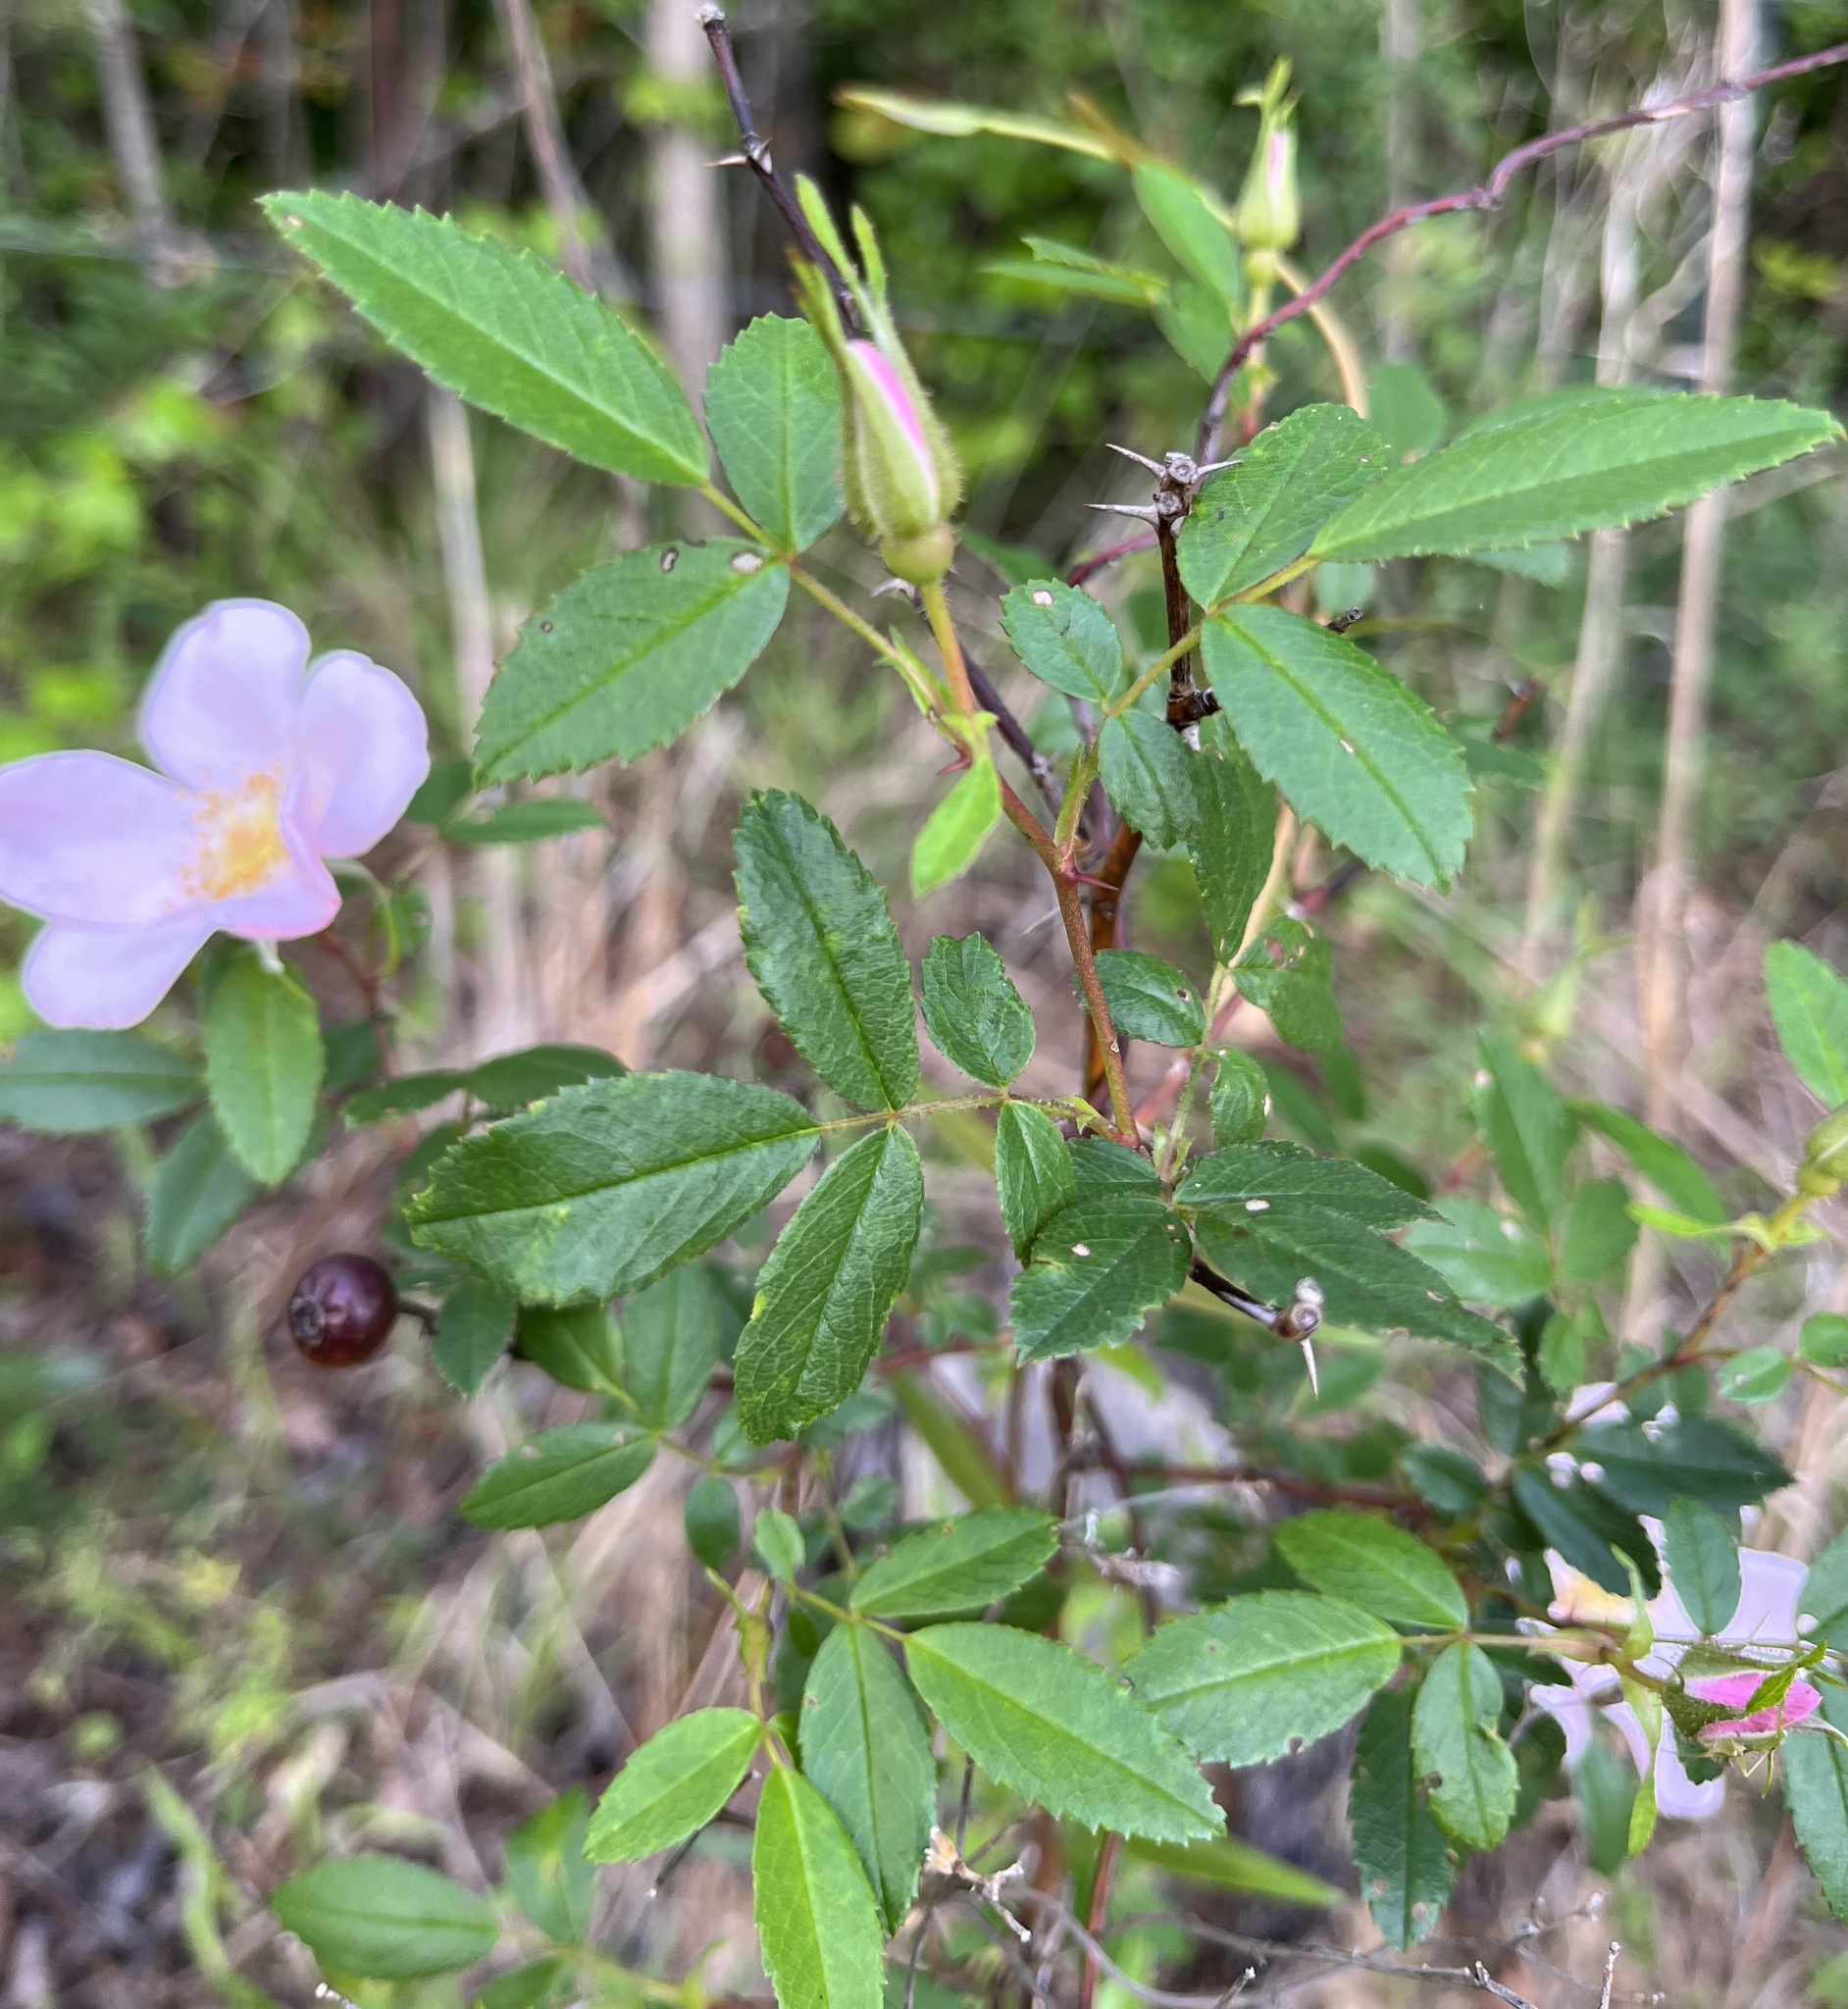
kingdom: Plantae
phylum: Tracheophyta
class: Magnoliopsida
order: Rosales
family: Rosaceae
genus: Rosa
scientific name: Rosa carolina
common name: Pasture rose
